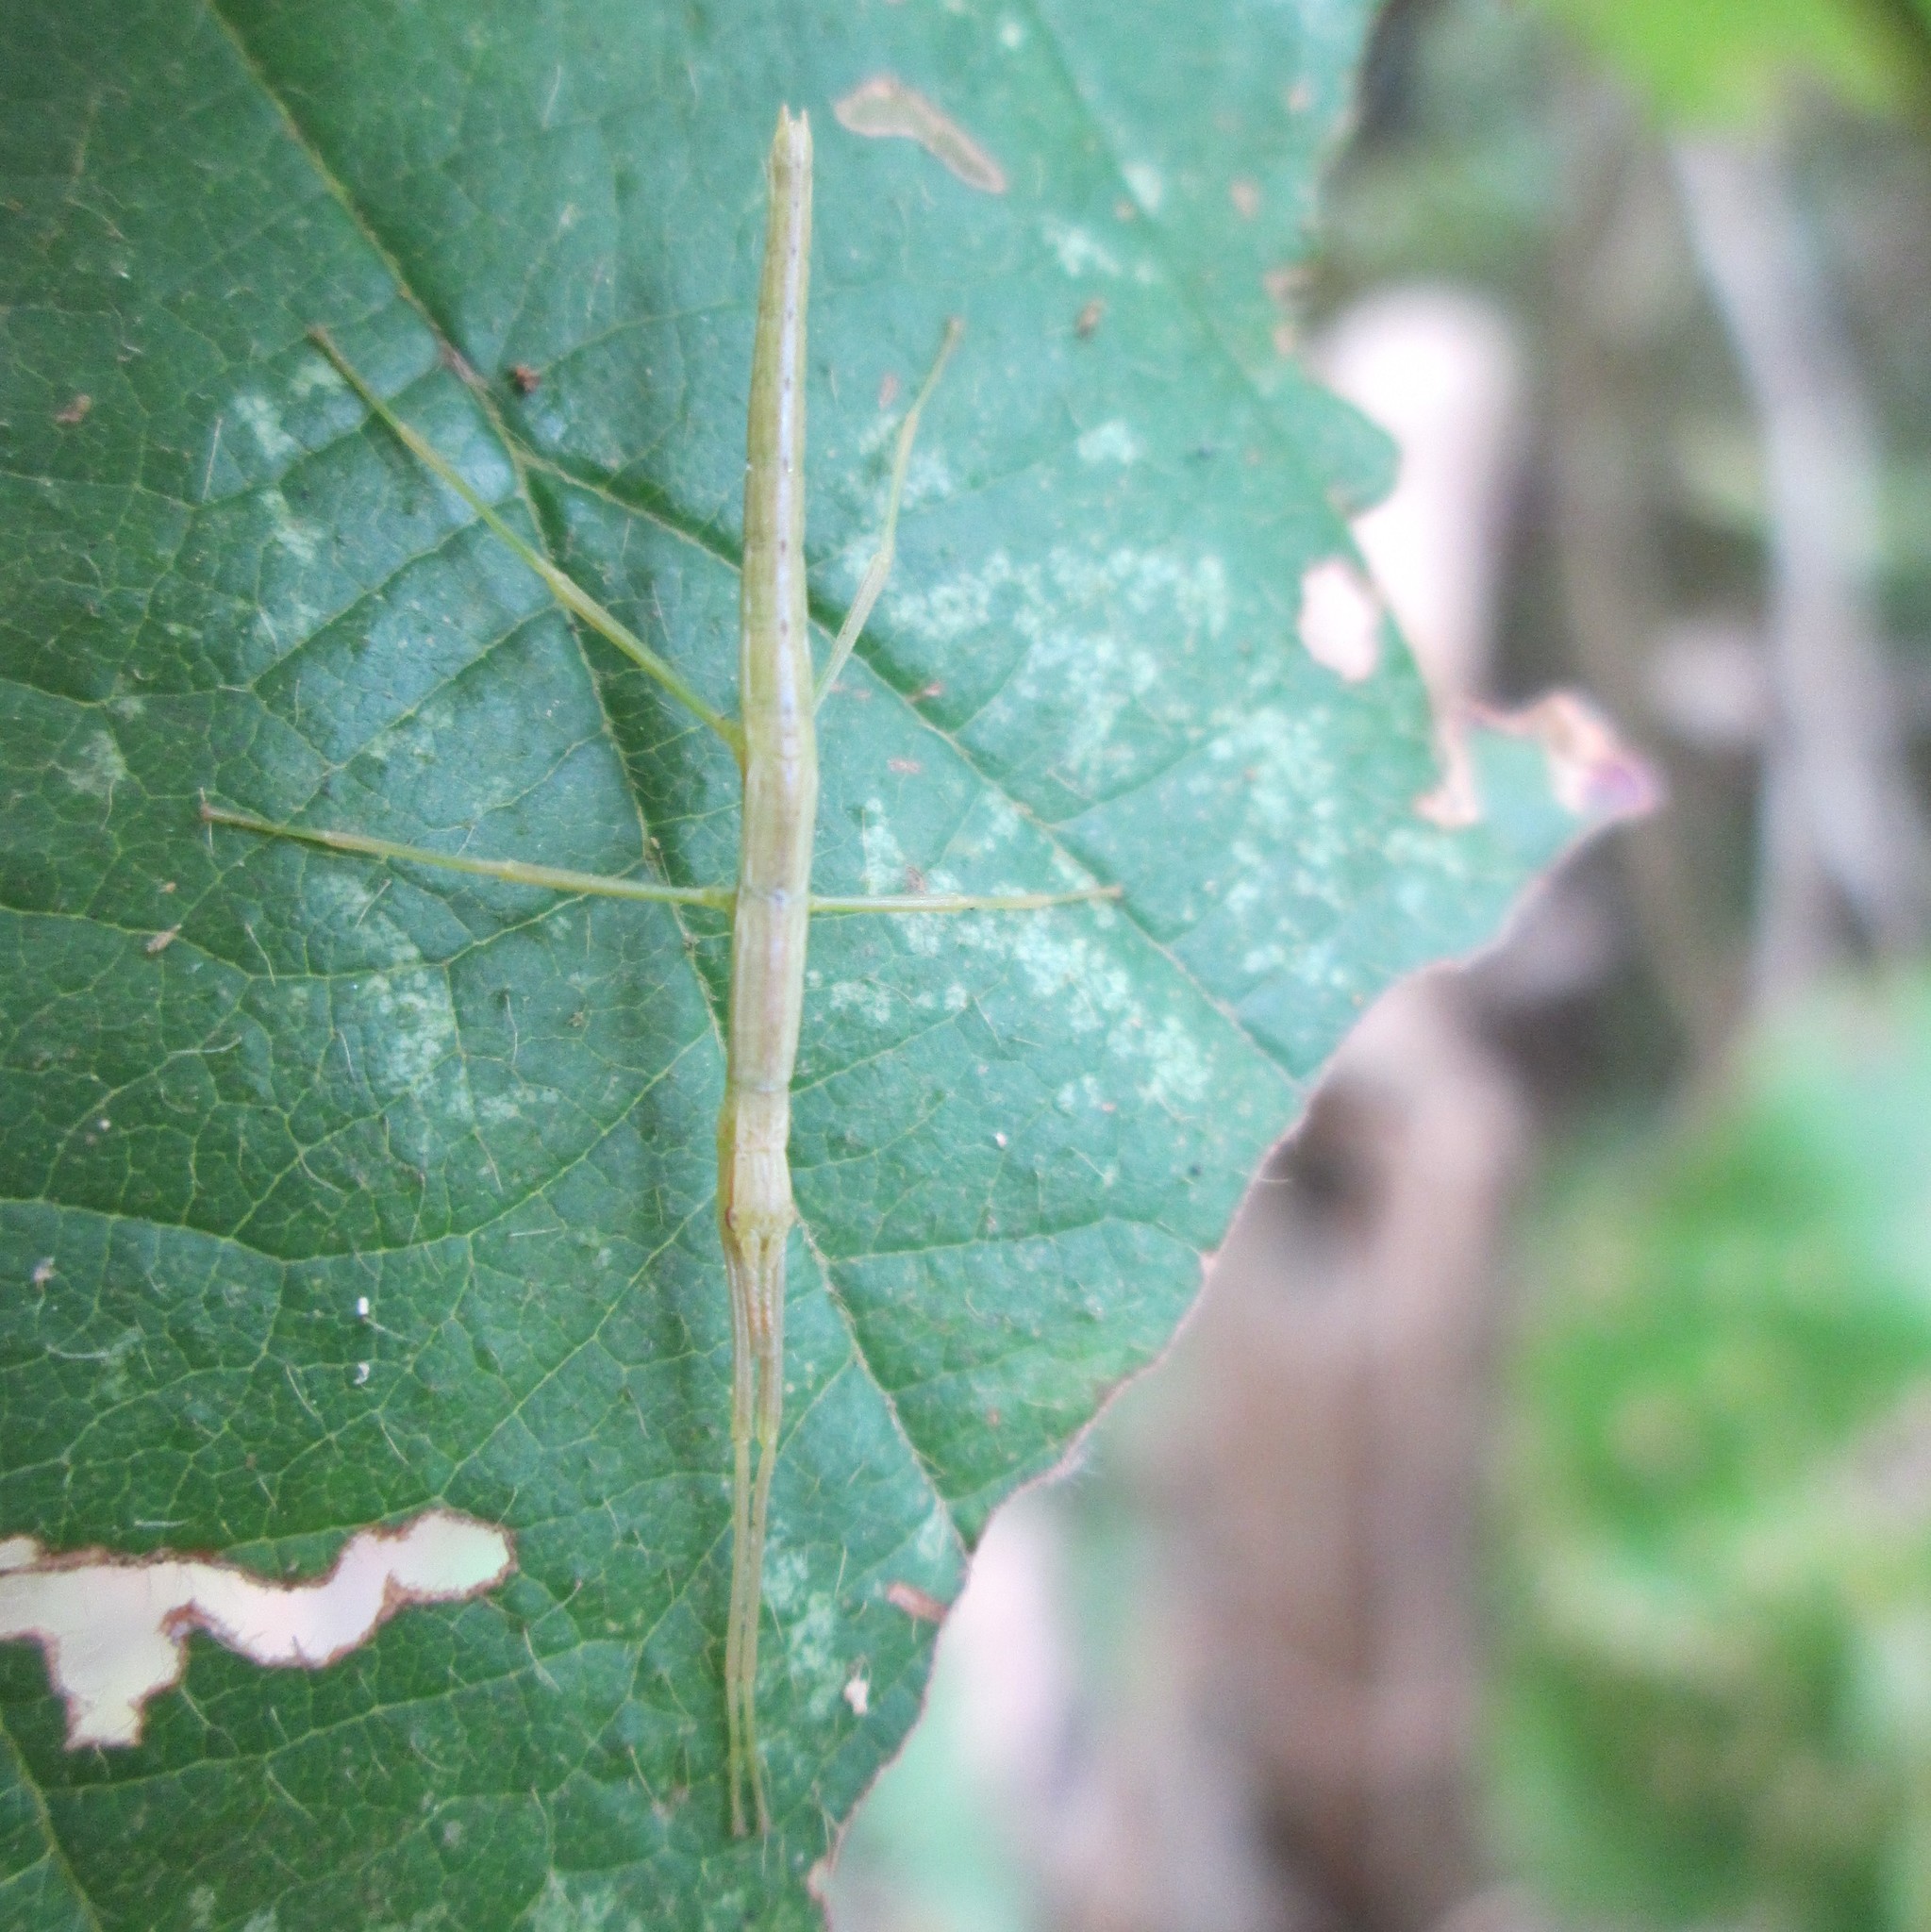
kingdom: Animalia
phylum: Arthropoda
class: Insecta
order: Phasmida
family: Phasmatidae
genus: Tectarchus
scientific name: Tectarchus huttoni
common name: The common ridge-backed stick insect
